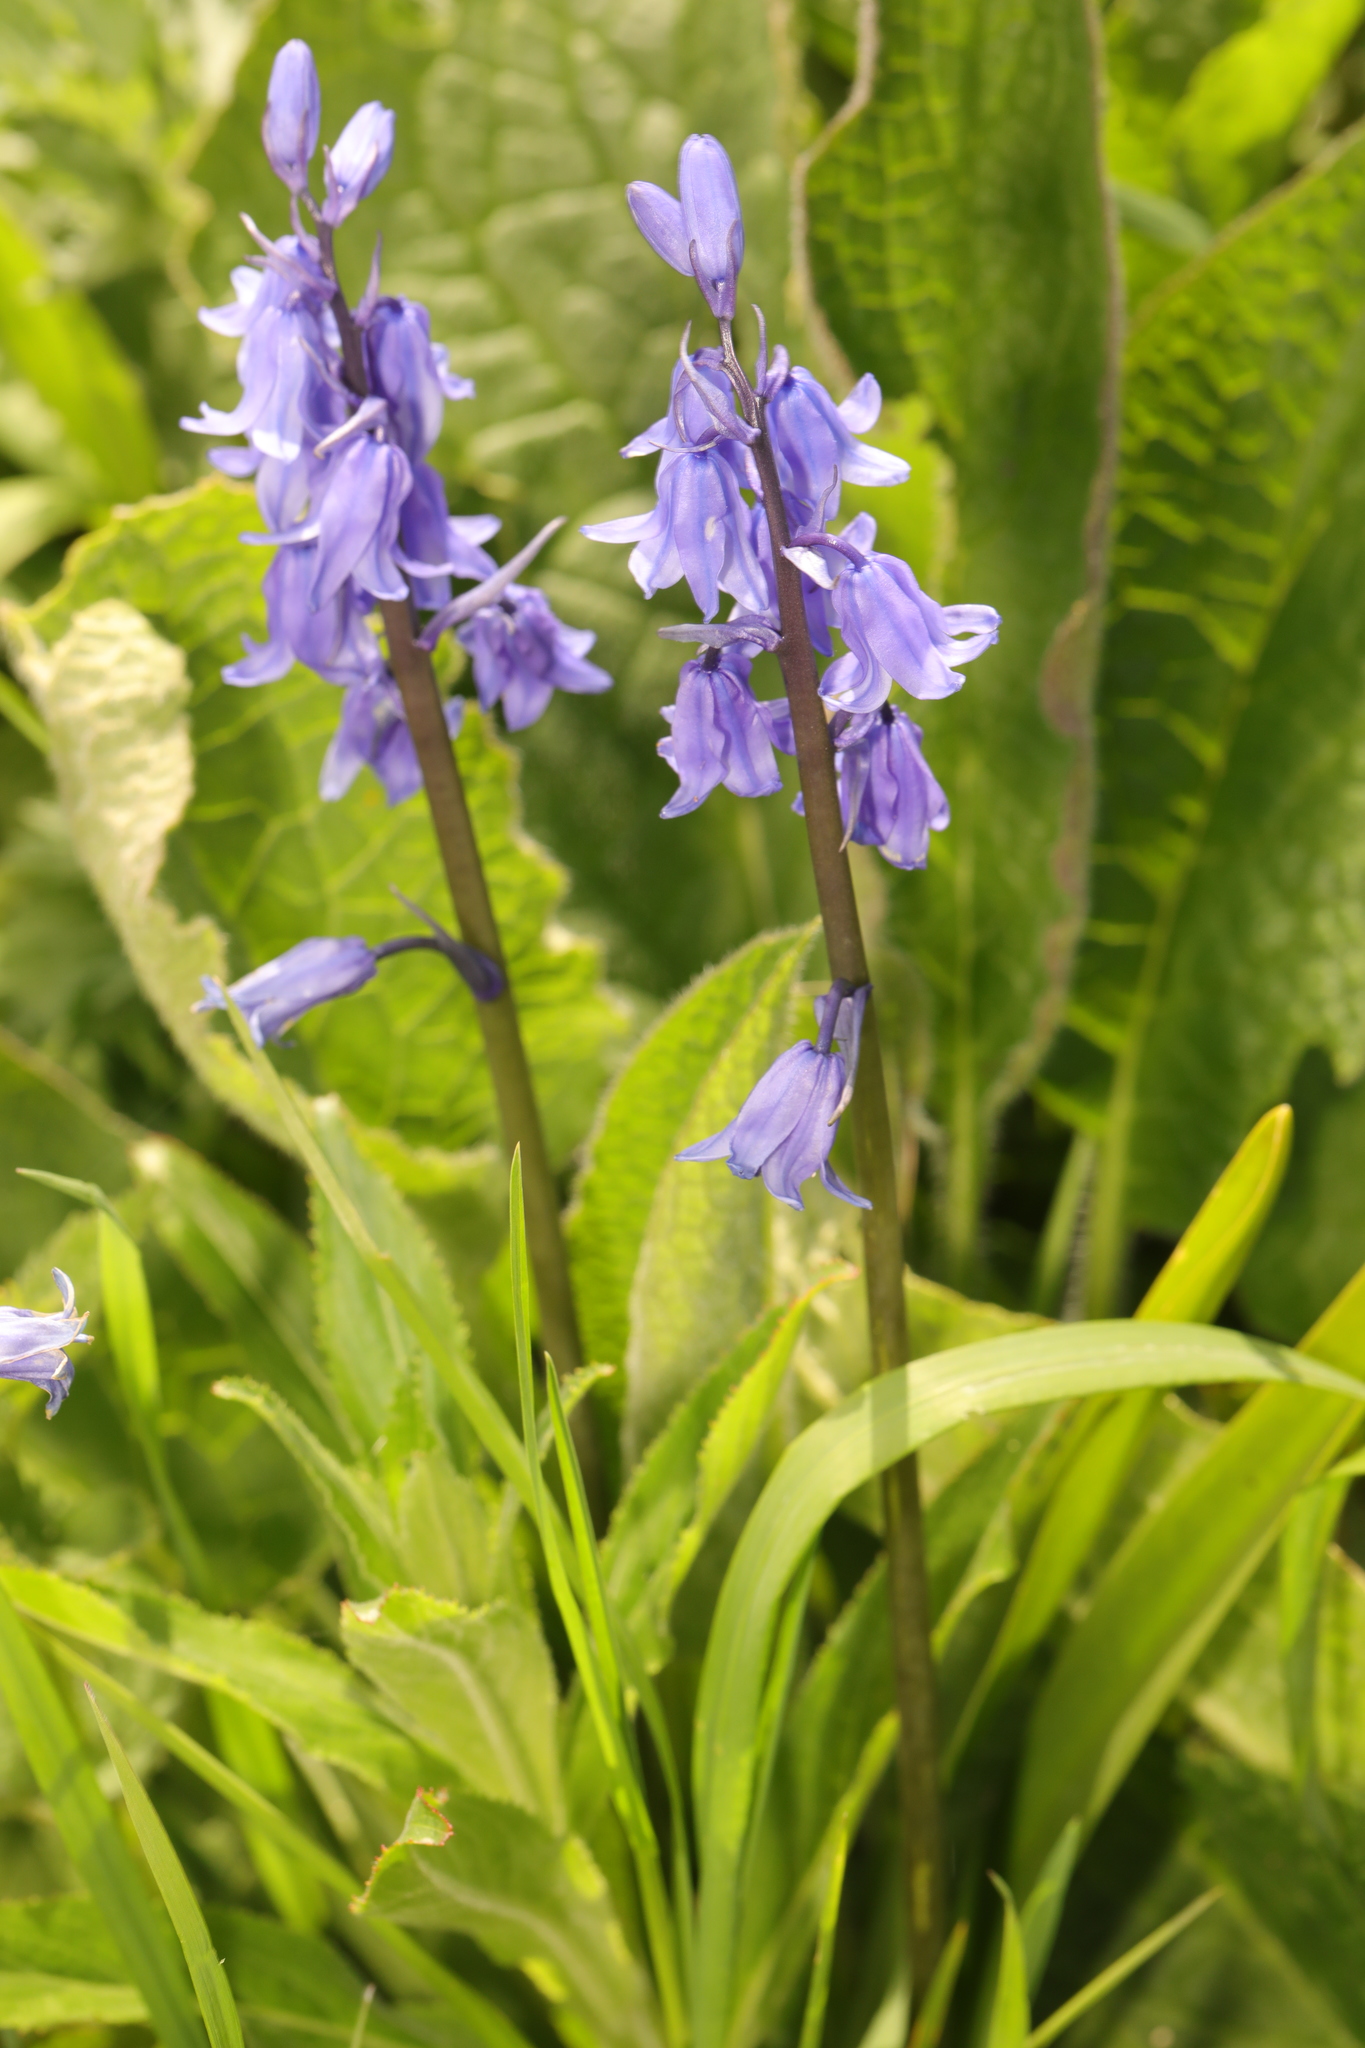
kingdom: Plantae
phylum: Tracheophyta
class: Liliopsida
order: Asparagales
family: Asparagaceae
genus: Hyacinthoides
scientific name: Hyacinthoides hispanica
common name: Spanish bluebell
